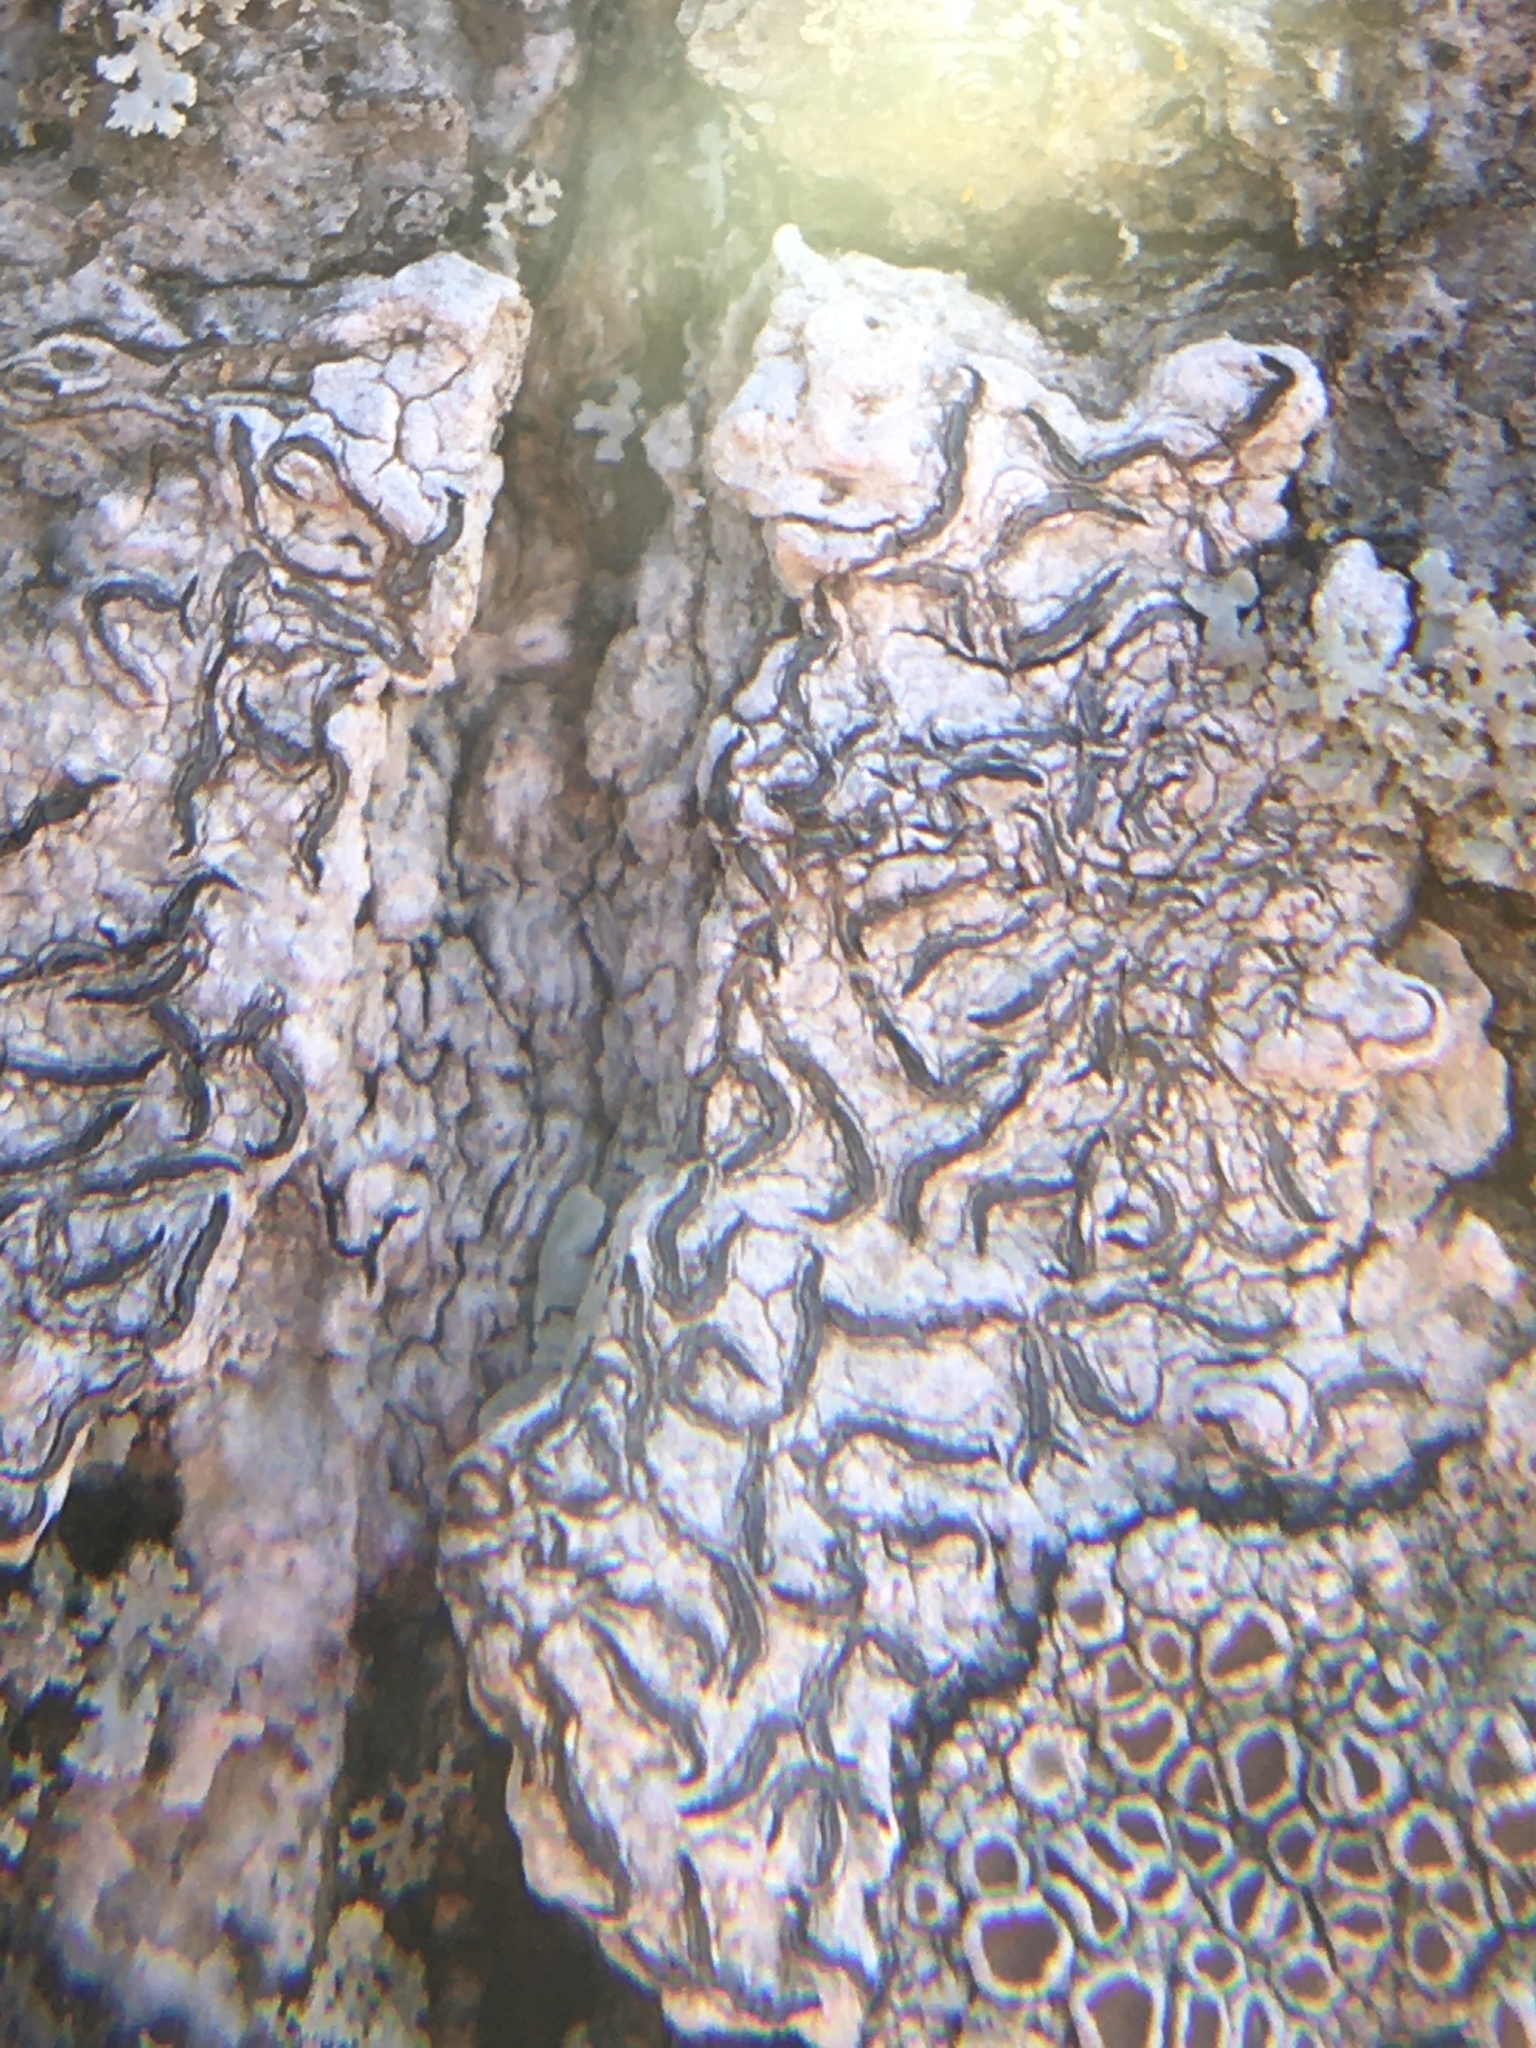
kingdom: Fungi
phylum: Ascomycota
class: Lecanoromycetes
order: Ostropales
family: Graphidaceae
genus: Graphis
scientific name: Graphis scripta
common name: Script lichen
